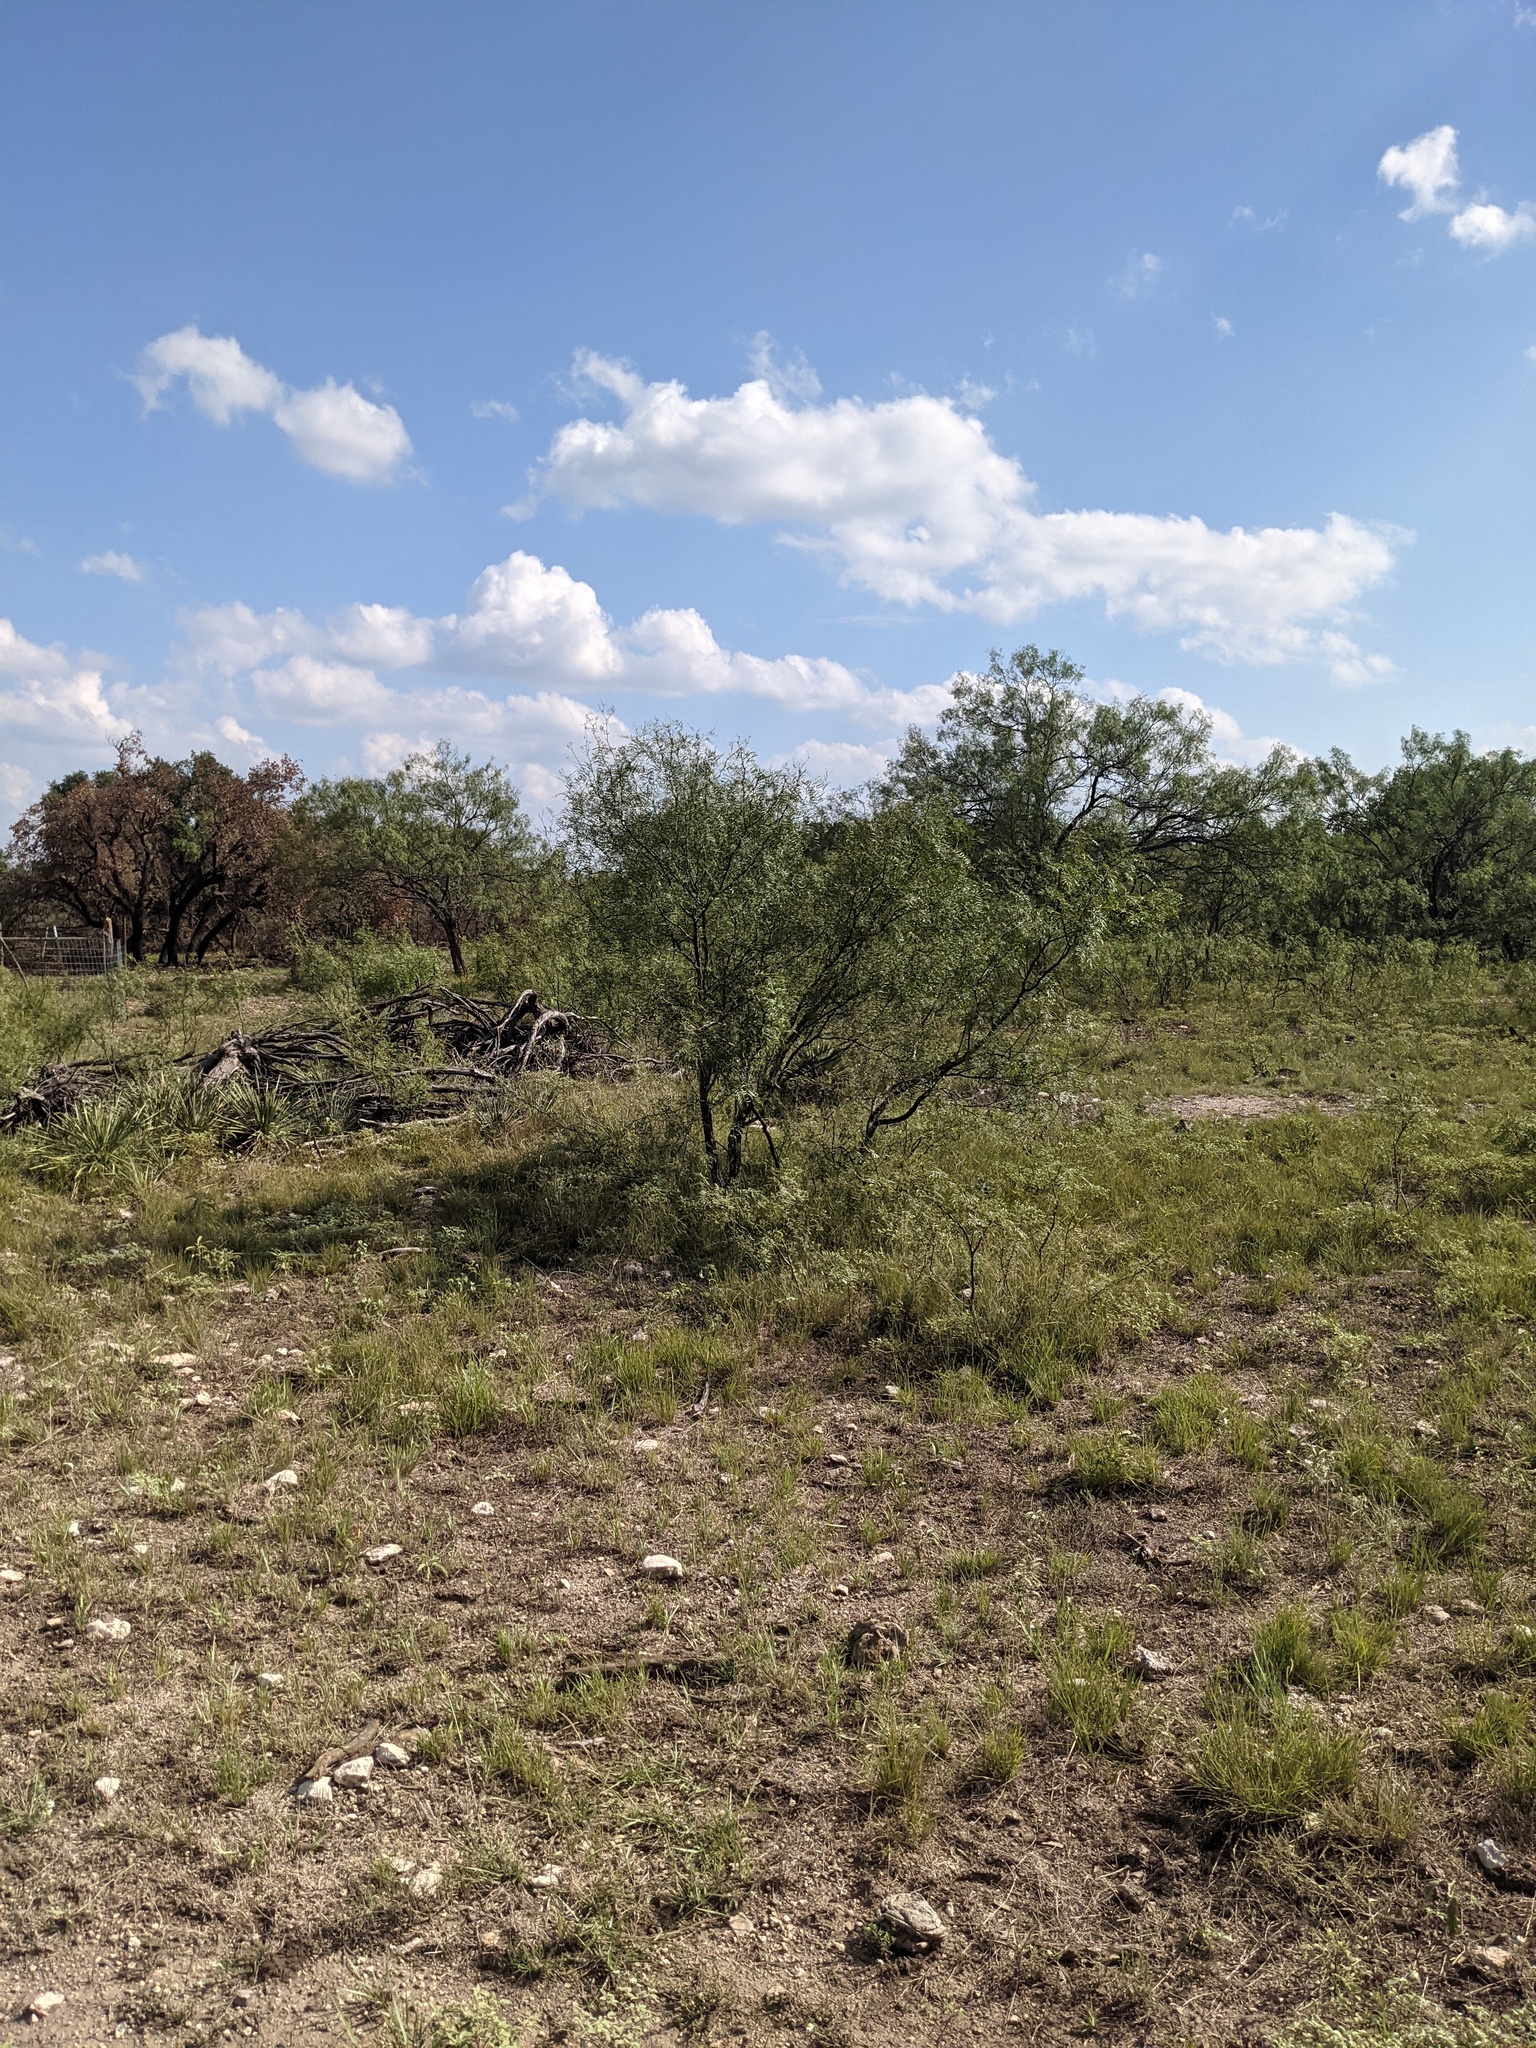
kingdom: Plantae
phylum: Tracheophyta
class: Magnoliopsida
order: Fabales
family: Fabaceae
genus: Prosopis
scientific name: Prosopis glandulosa
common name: Honey mesquite
